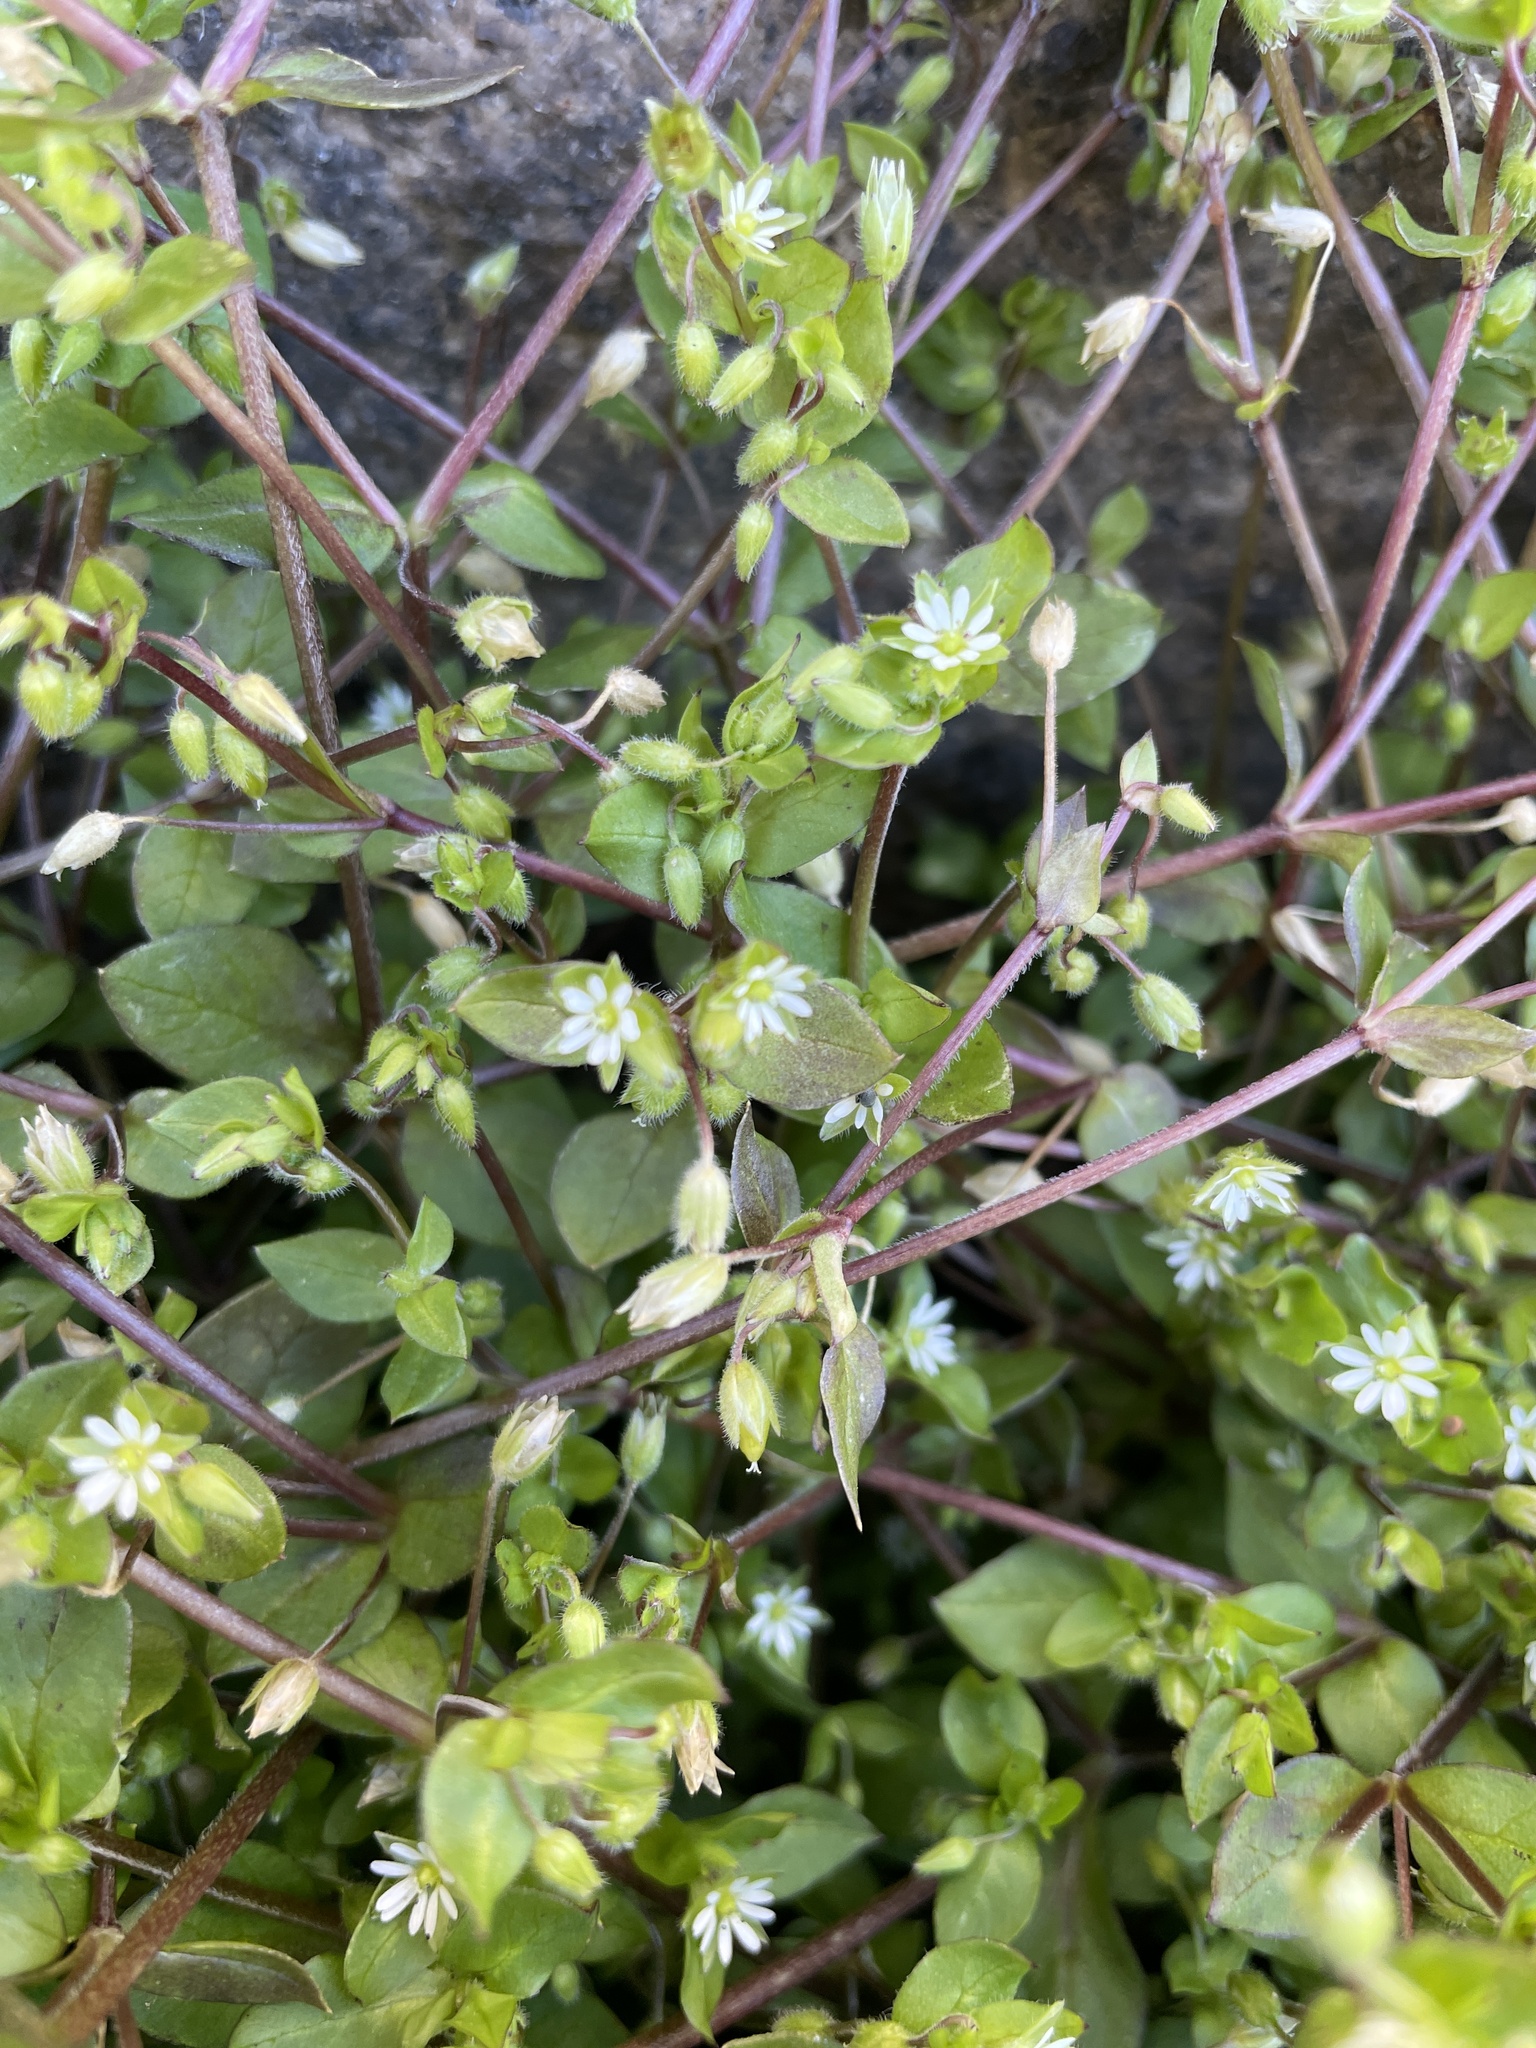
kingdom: Plantae
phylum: Tracheophyta
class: Magnoliopsida
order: Caryophyllales
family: Caryophyllaceae
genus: Stellaria
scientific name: Stellaria media
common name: Common chickweed
